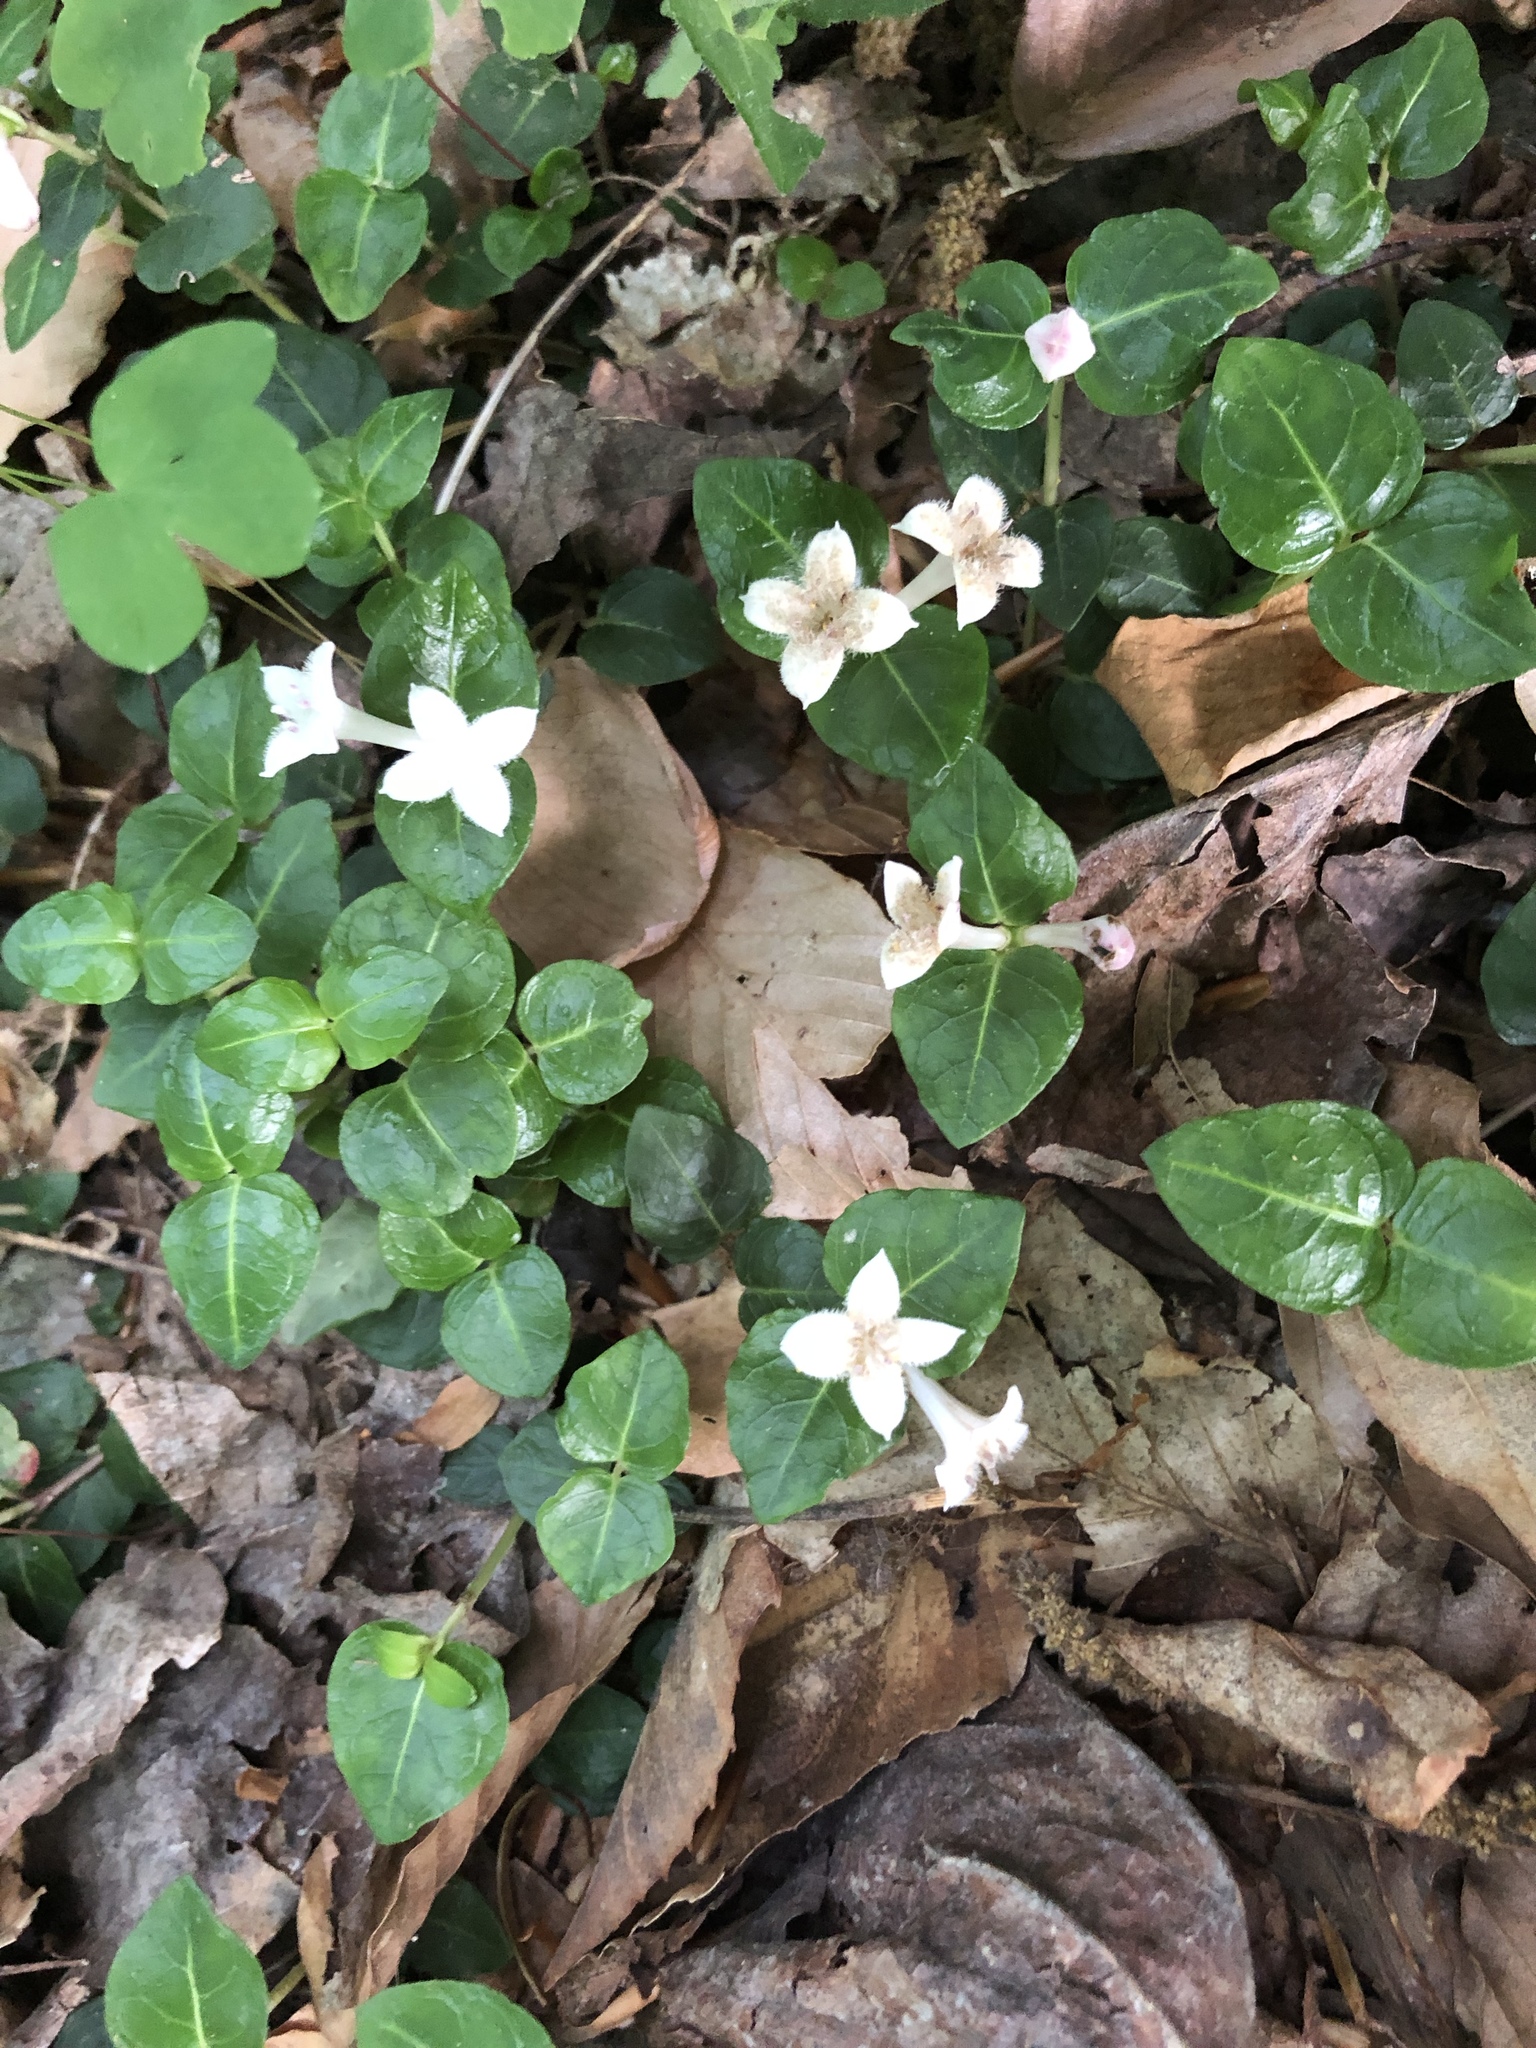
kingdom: Plantae
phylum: Tracheophyta
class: Magnoliopsida
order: Gentianales
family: Rubiaceae
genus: Mitchella
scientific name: Mitchella repens
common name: Partridge-berry
